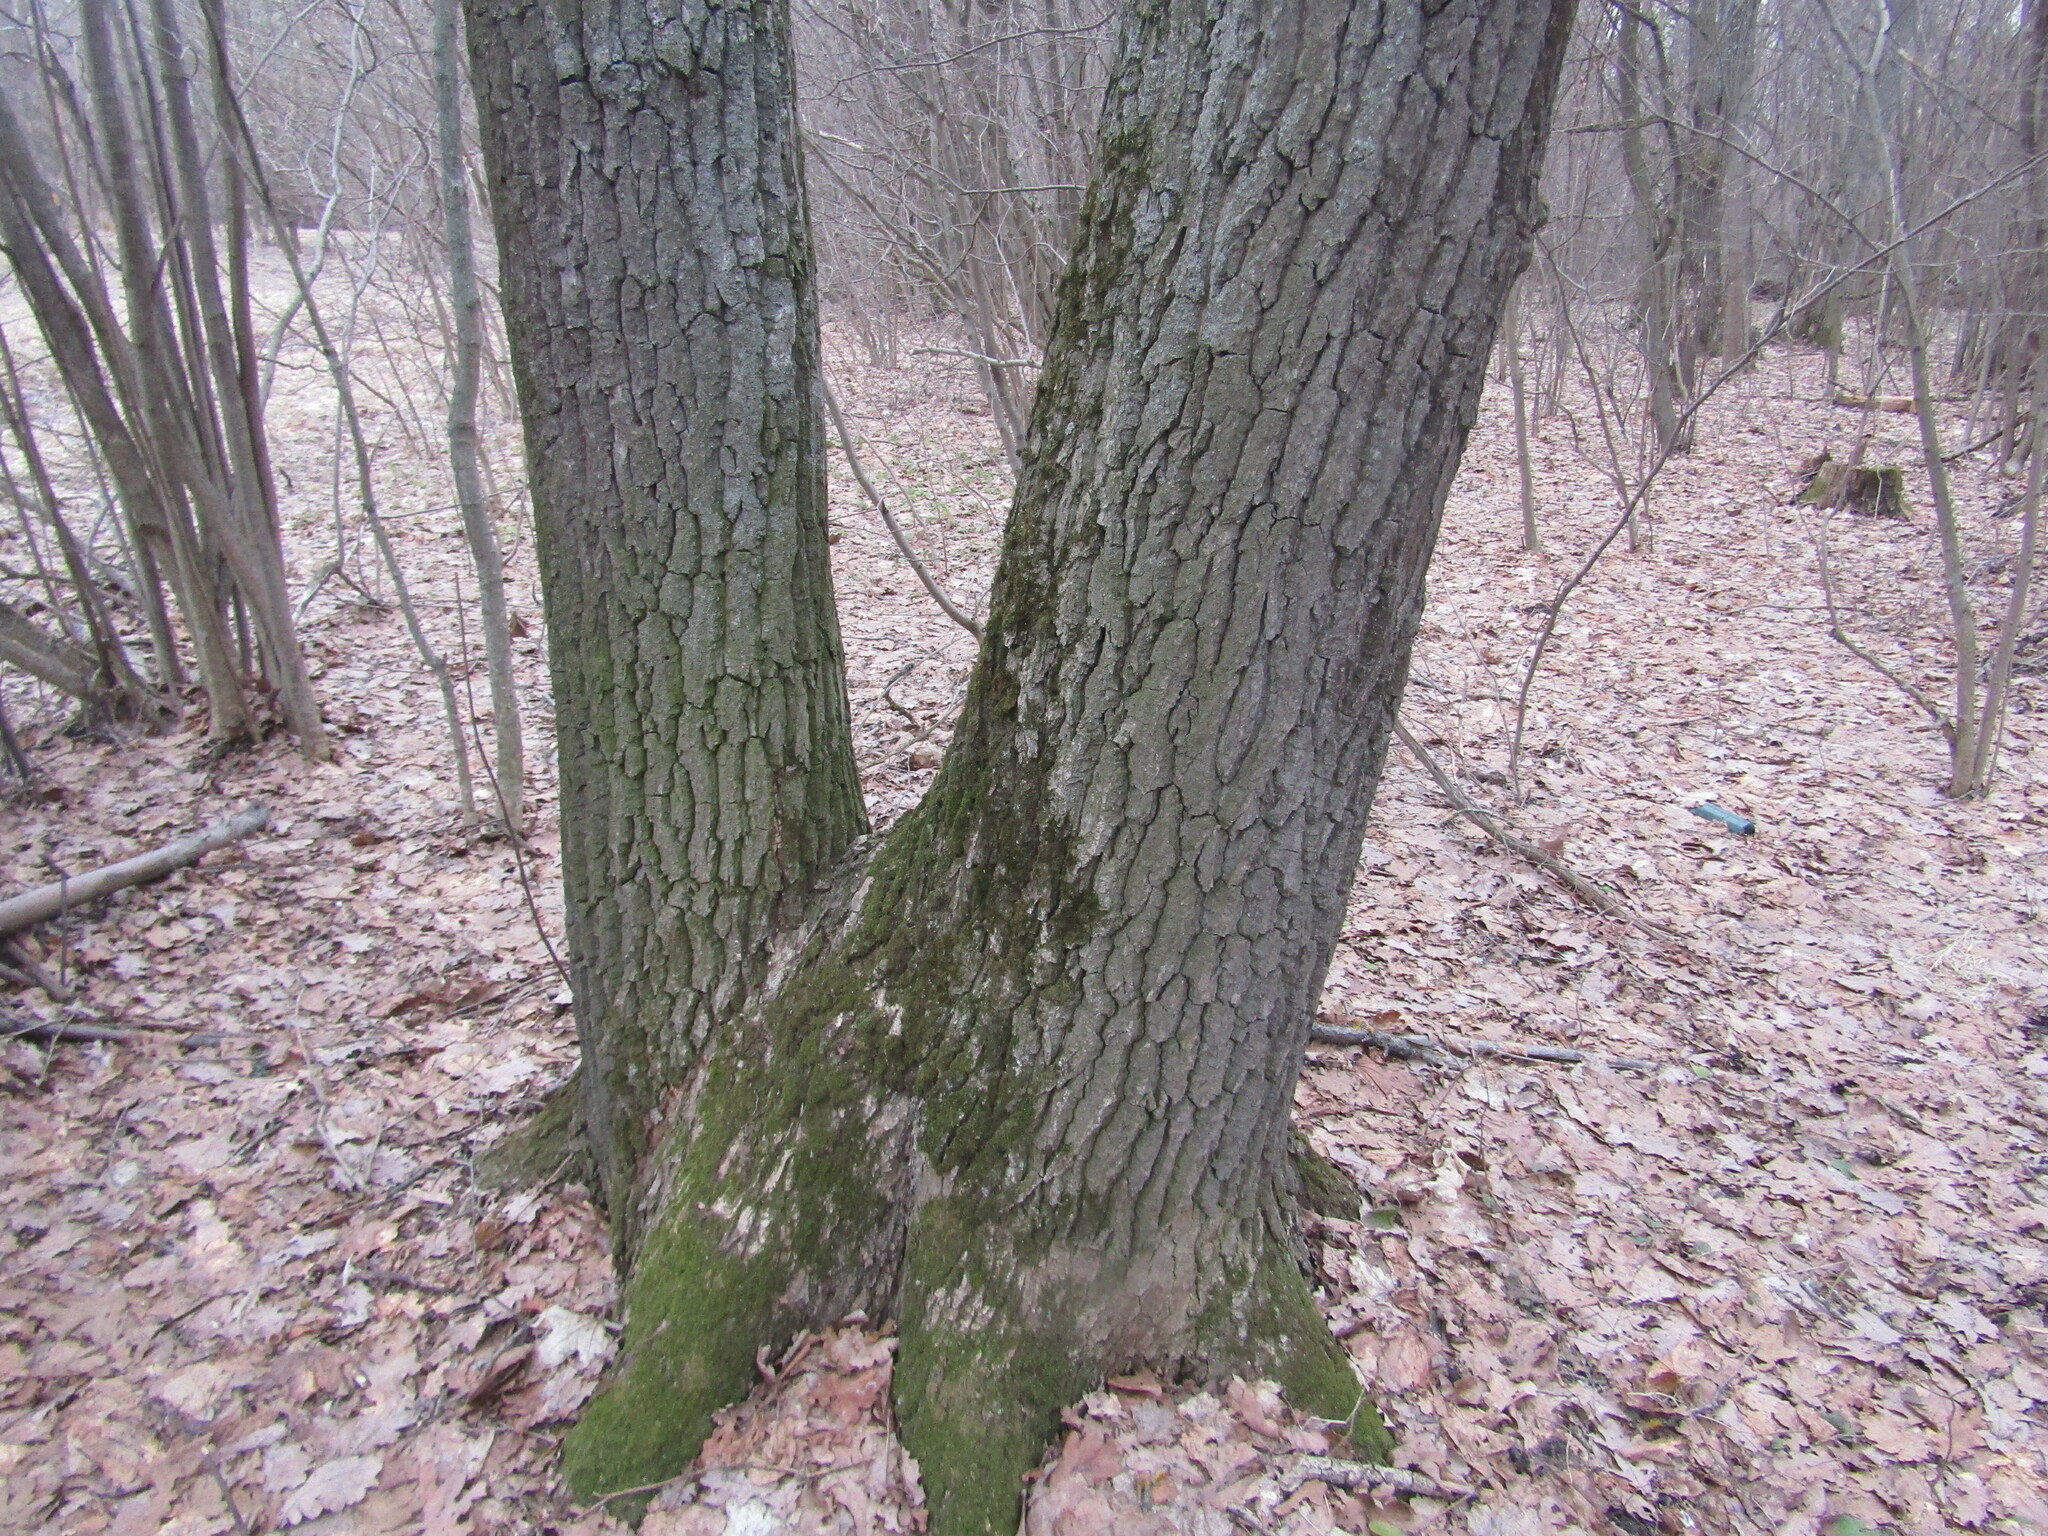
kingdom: Plantae
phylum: Tracheophyta
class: Magnoliopsida
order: Fagales
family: Fagaceae
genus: Quercus
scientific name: Quercus robur
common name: Pedunculate oak
